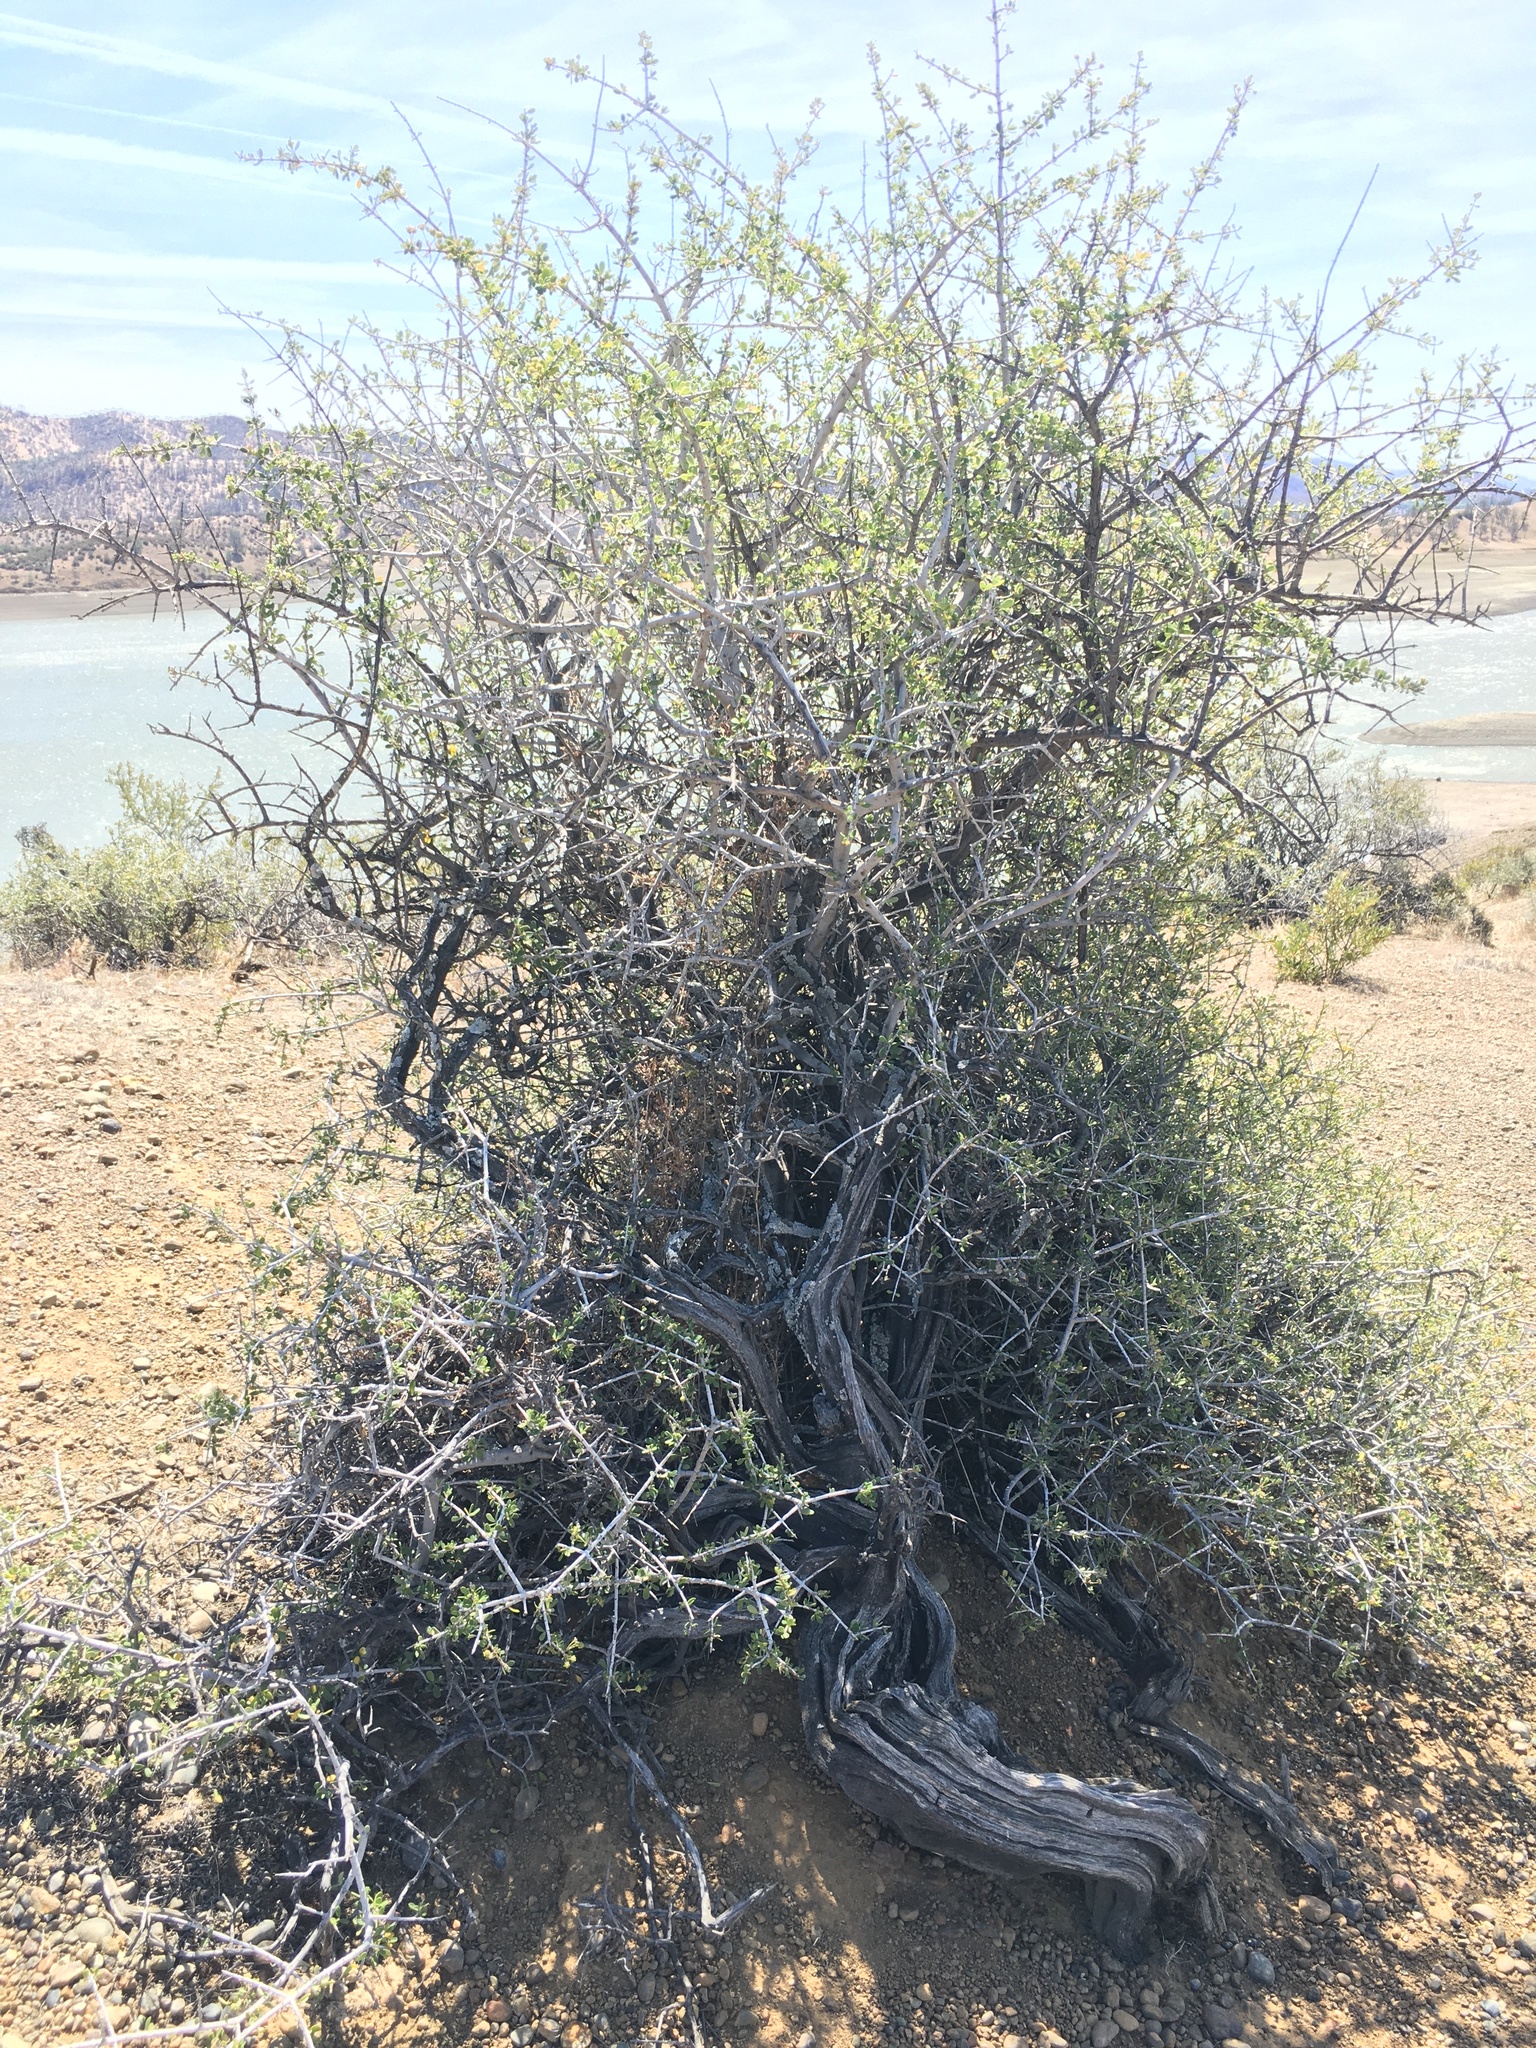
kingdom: Plantae
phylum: Tracheophyta
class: Magnoliopsida
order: Rosales
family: Rhamnaceae
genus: Ceanothus
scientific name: Ceanothus cuneatus
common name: Cuneate ceanothus
